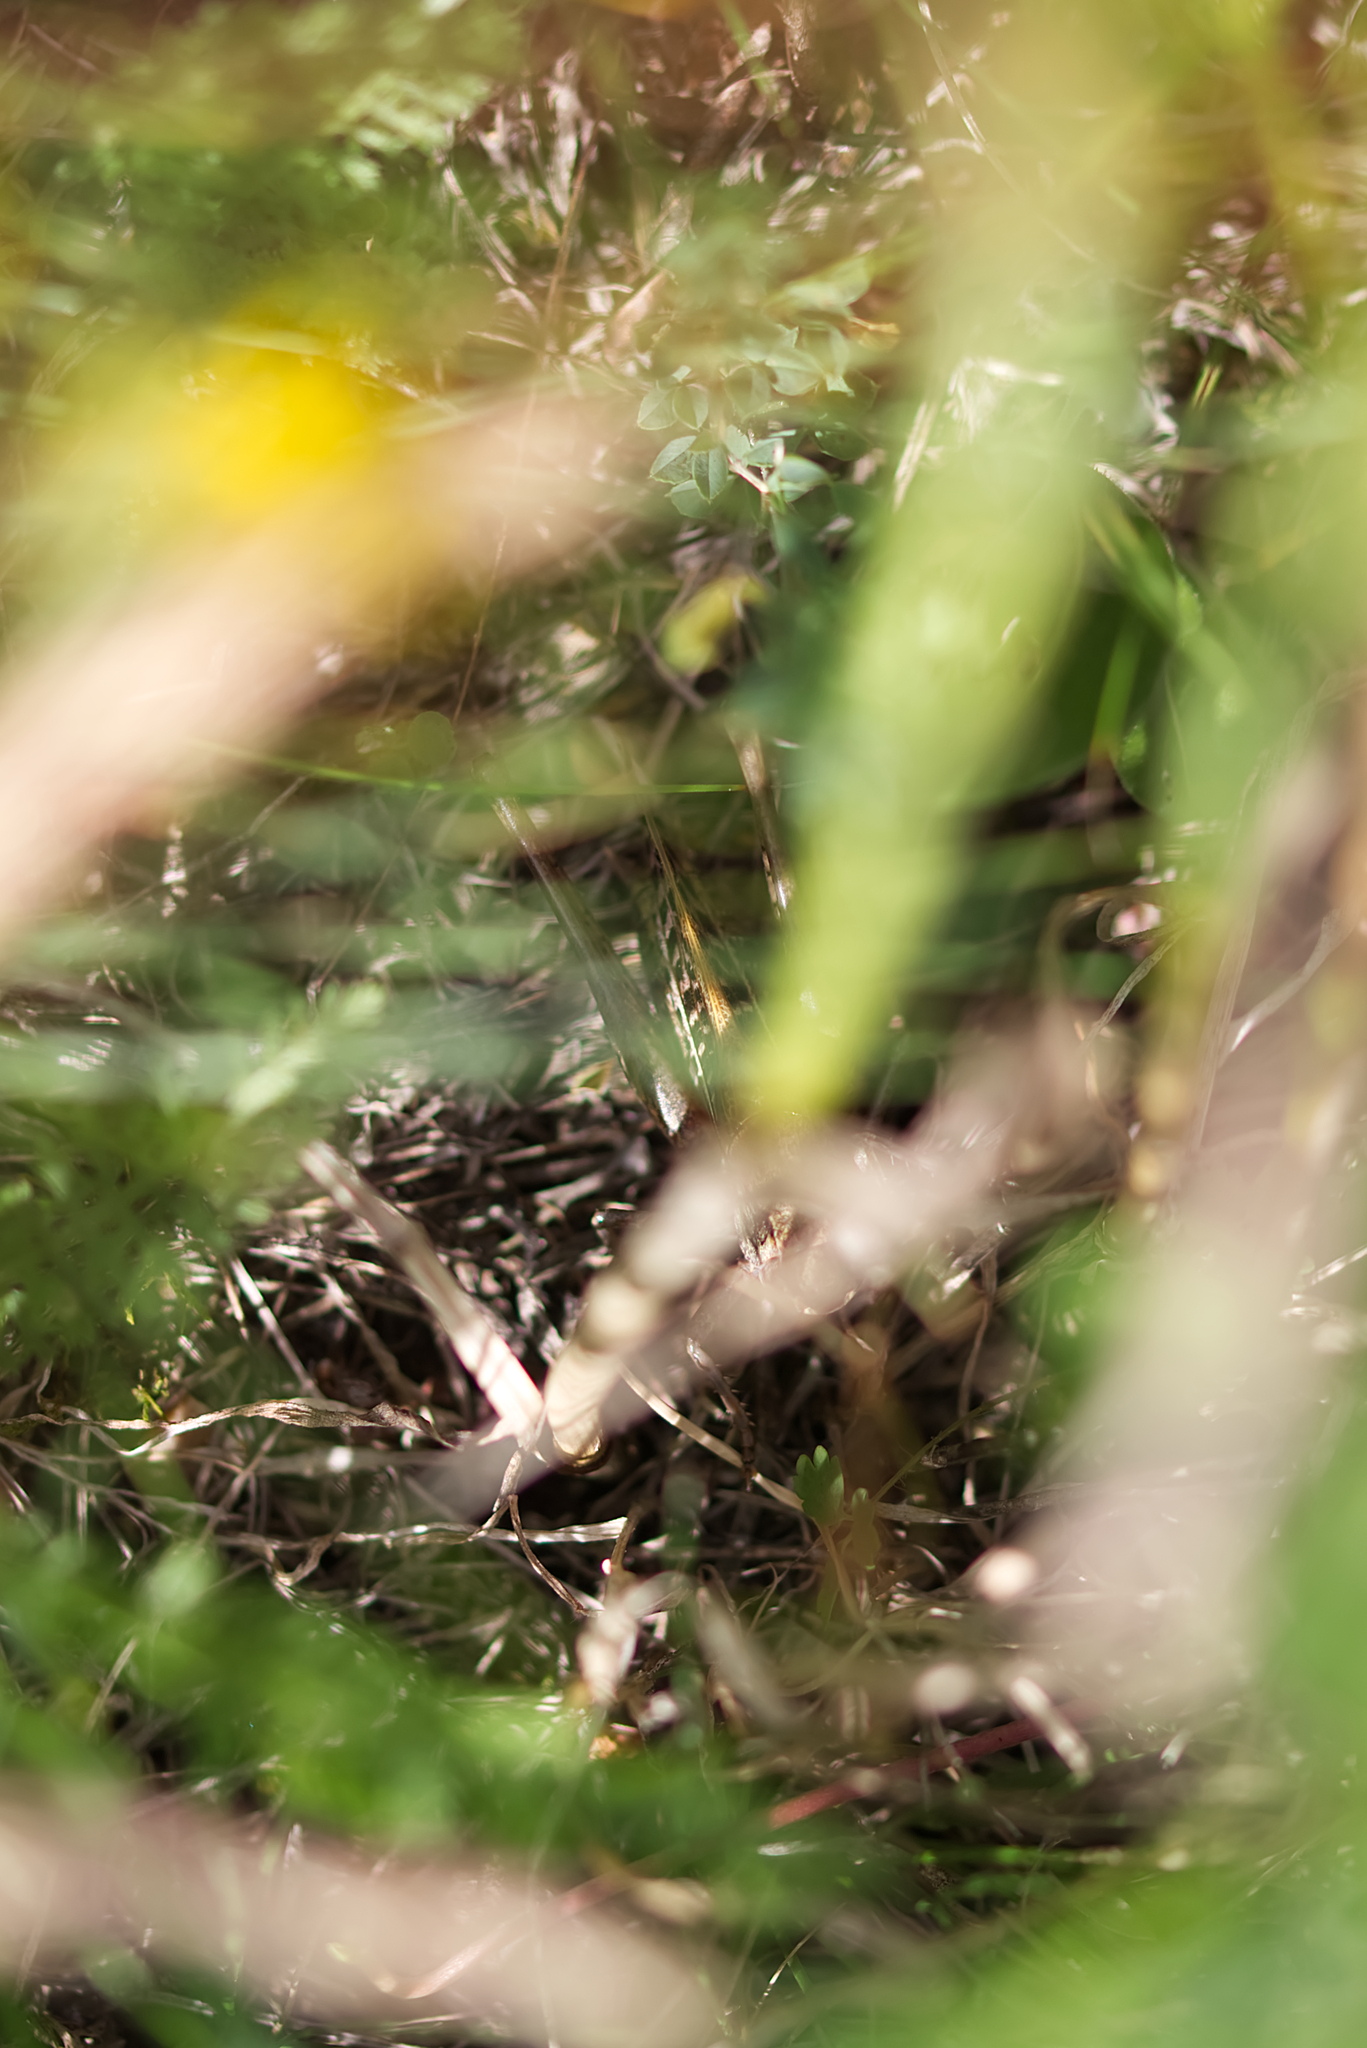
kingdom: Animalia
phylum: Arthropoda
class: Insecta
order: Orthoptera
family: Tettigoniidae
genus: Decticus
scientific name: Decticus verrucivorus
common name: Wart-biter
